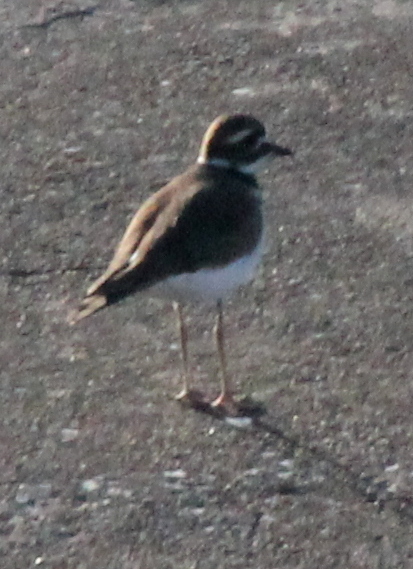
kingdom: Animalia
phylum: Chordata
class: Aves
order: Charadriiformes
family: Charadriidae
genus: Charadrius
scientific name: Charadrius vociferus
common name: Killdeer
